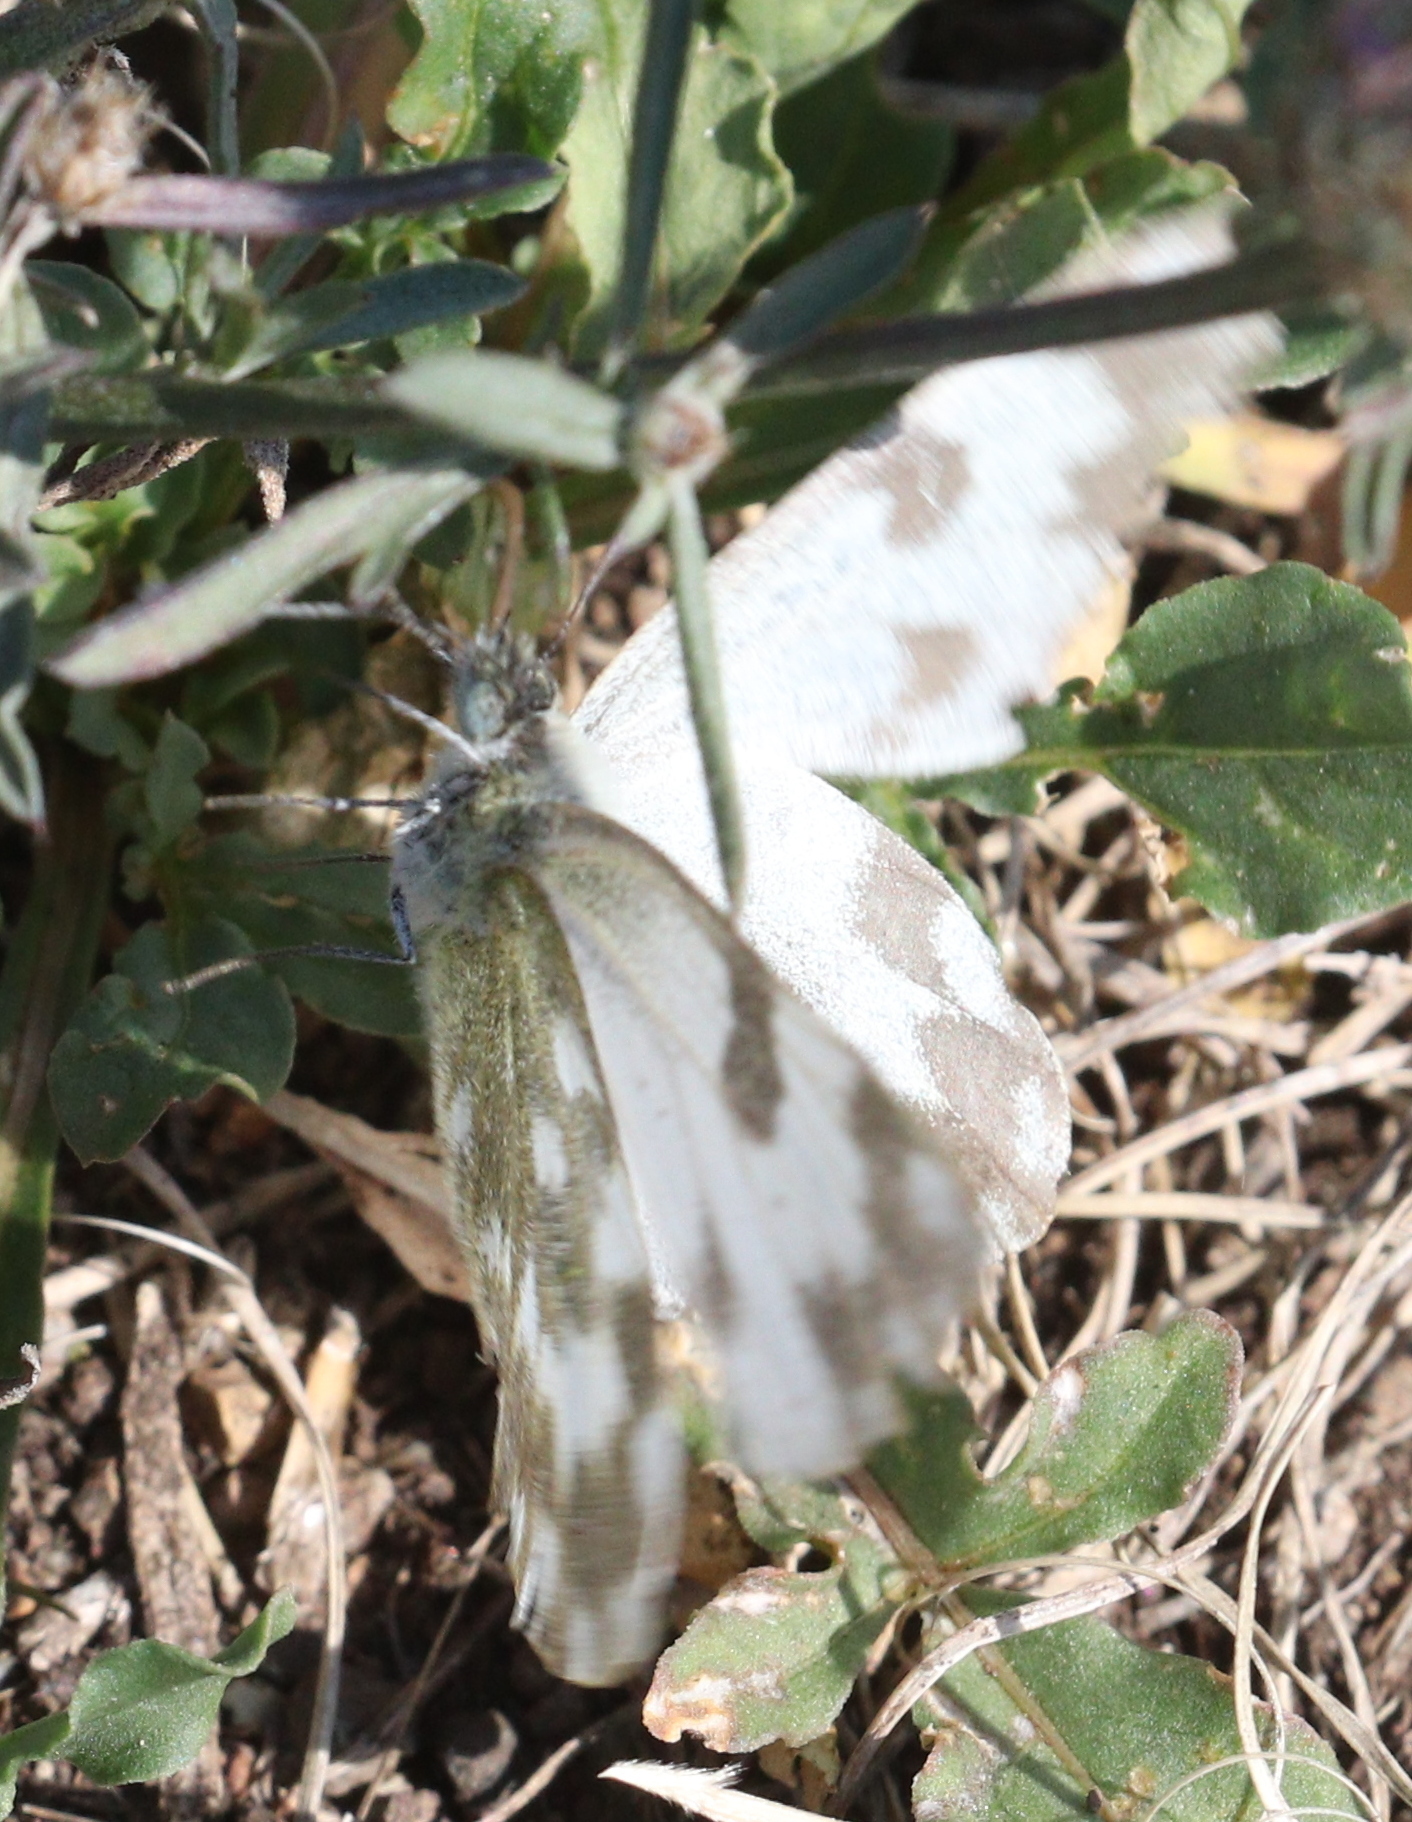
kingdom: Animalia
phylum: Arthropoda
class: Insecta
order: Lepidoptera
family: Pieridae
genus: Pontia
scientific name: Pontia edusa
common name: Eastern bath white
